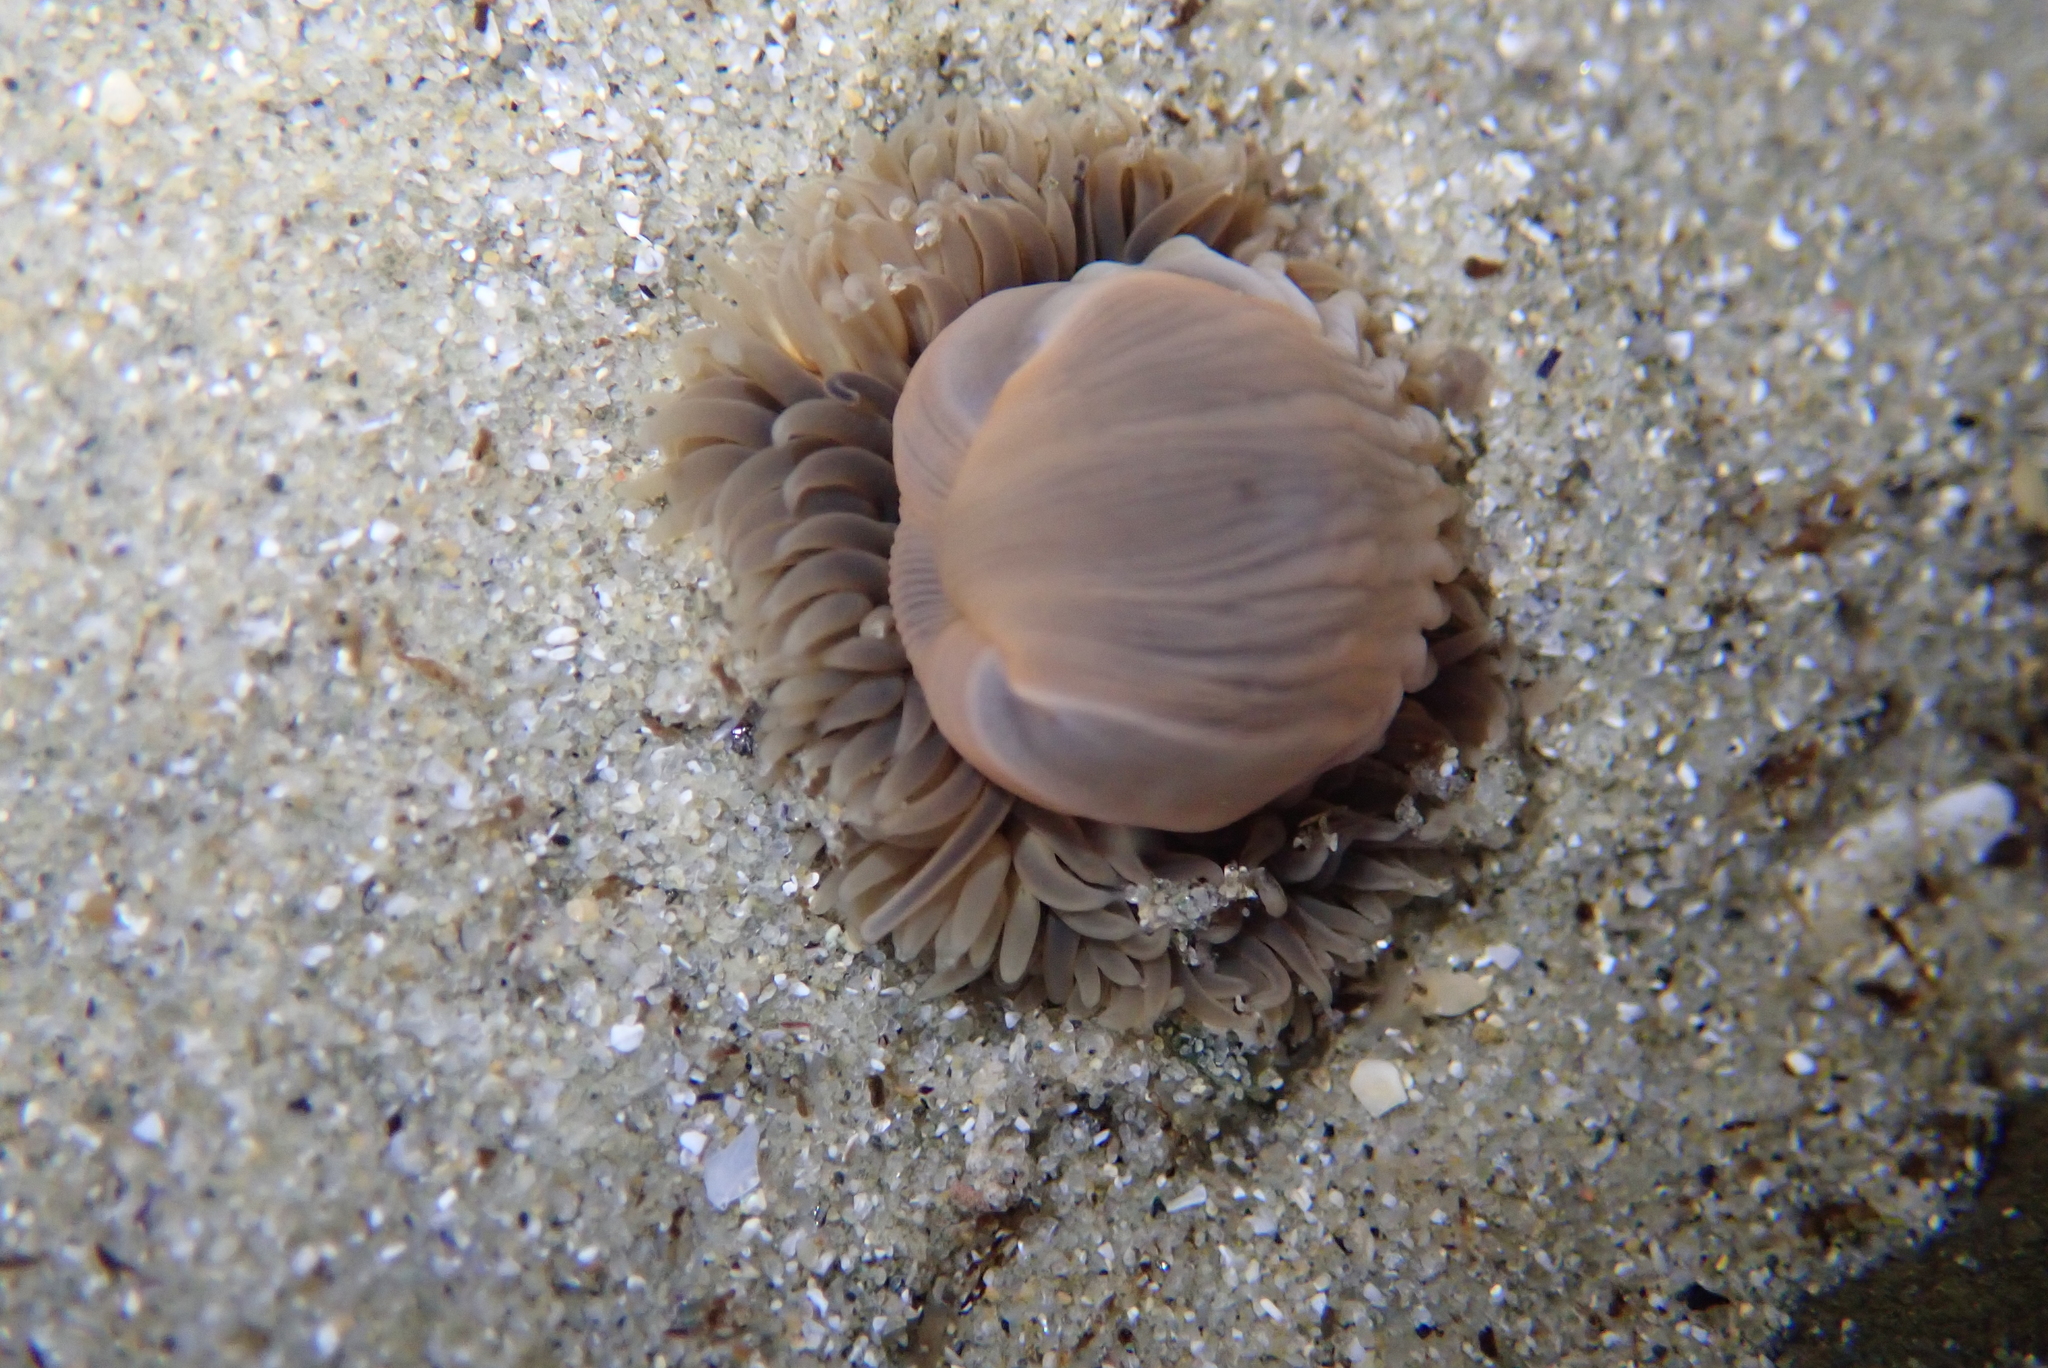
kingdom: Animalia
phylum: Cnidaria
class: Anthozoa
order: Actiniaria
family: Diadumenidae
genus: Diadumene
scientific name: Diadumene neozelanica
